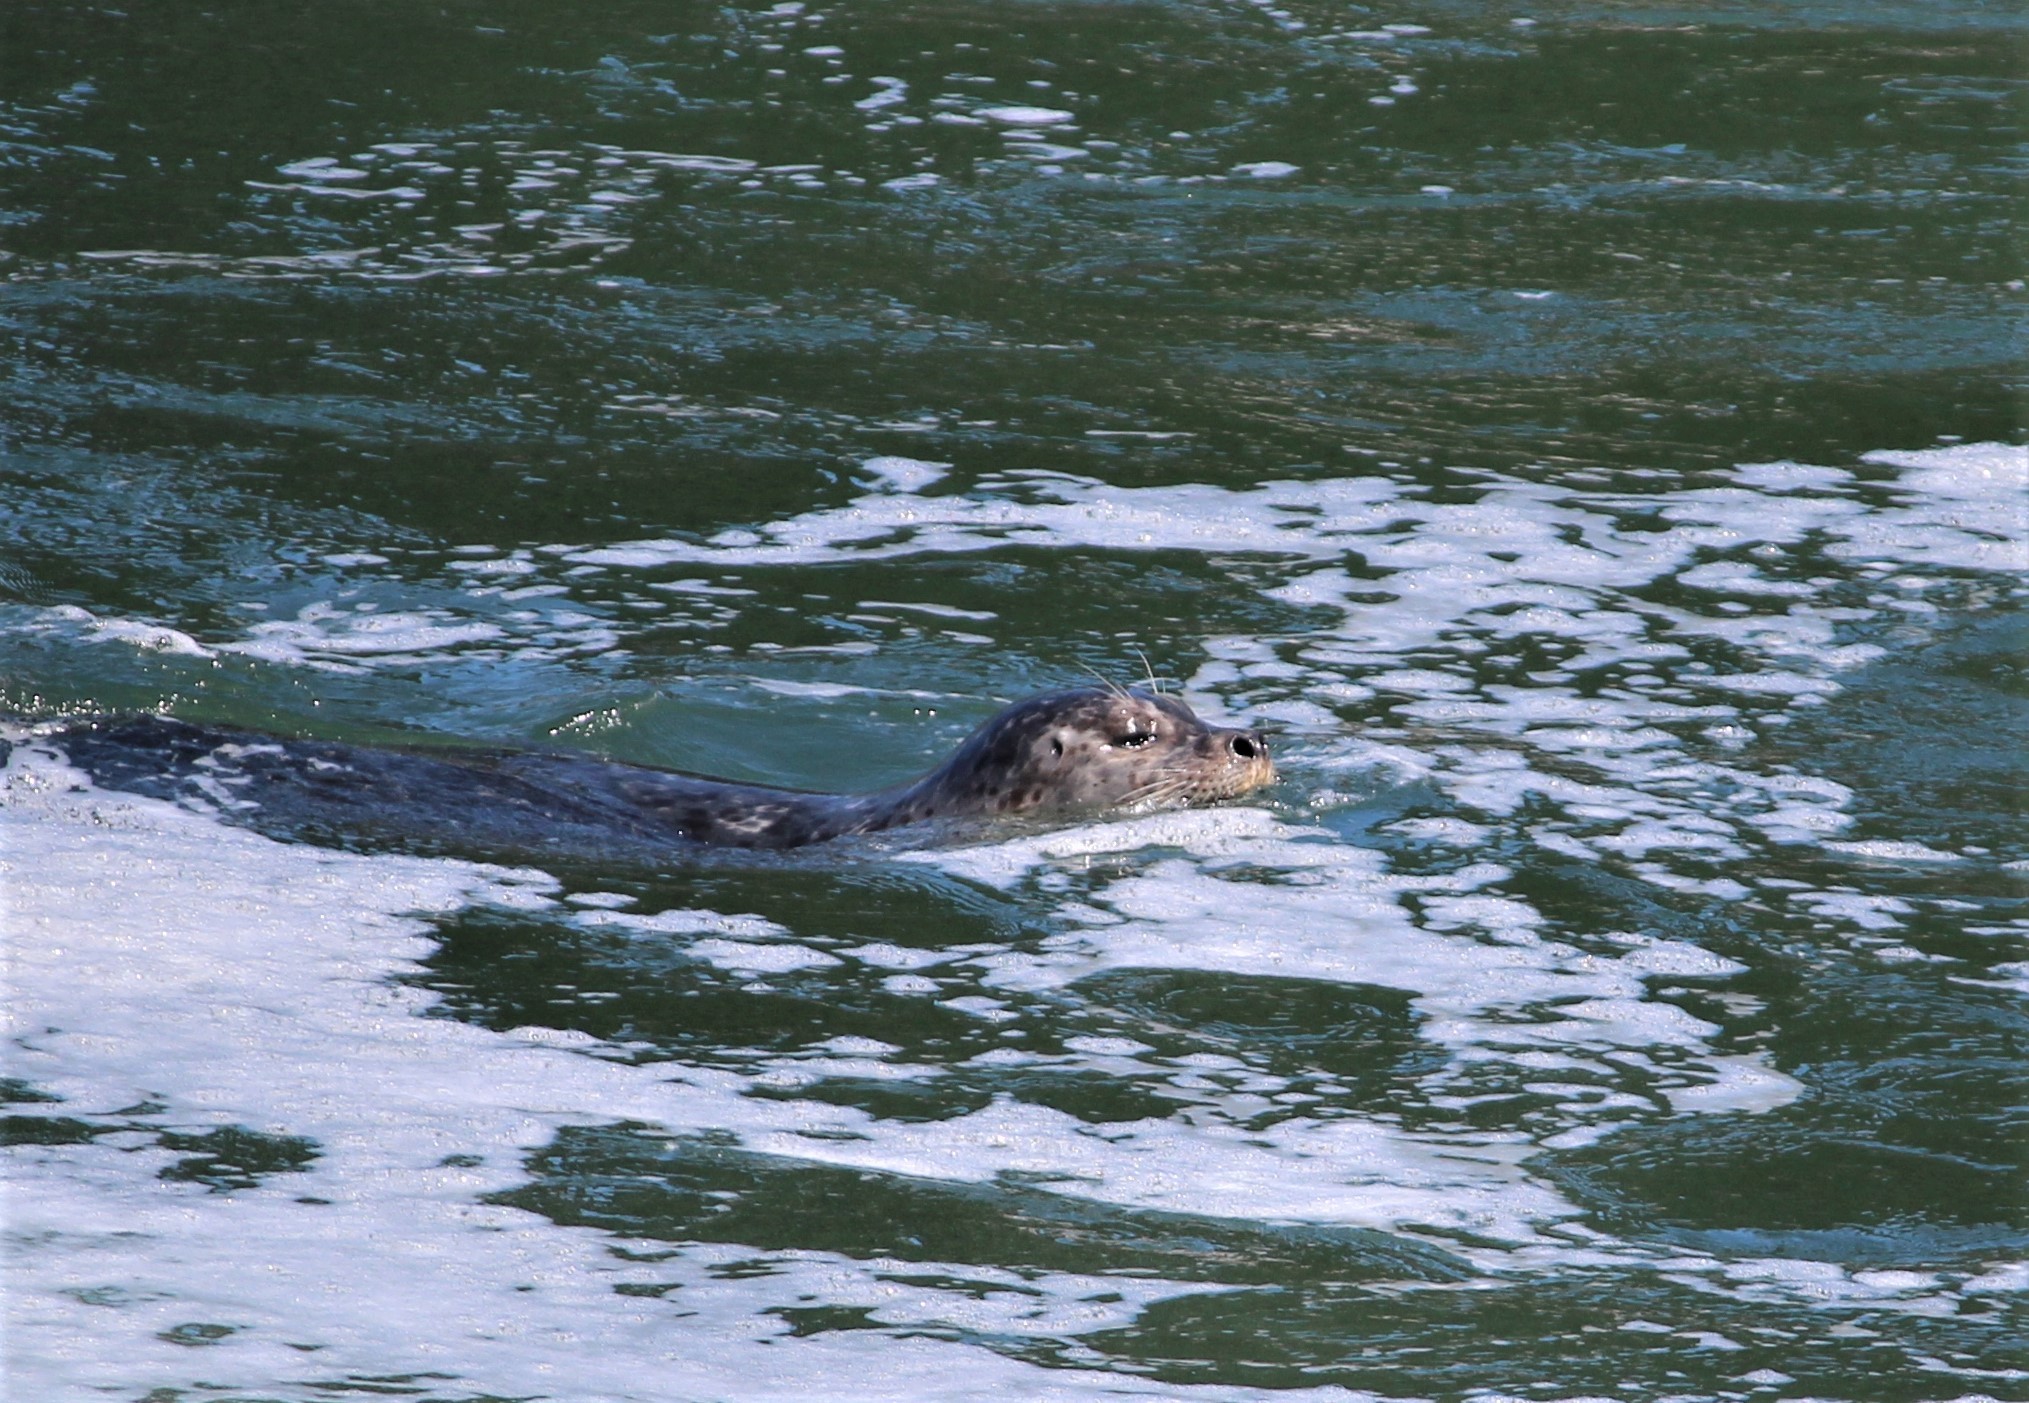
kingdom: Animalia
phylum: Chordata
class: Mammalia
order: Carnivora
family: Phocidae
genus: Phoca
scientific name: Phoca vitulina
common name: Harbor seal
